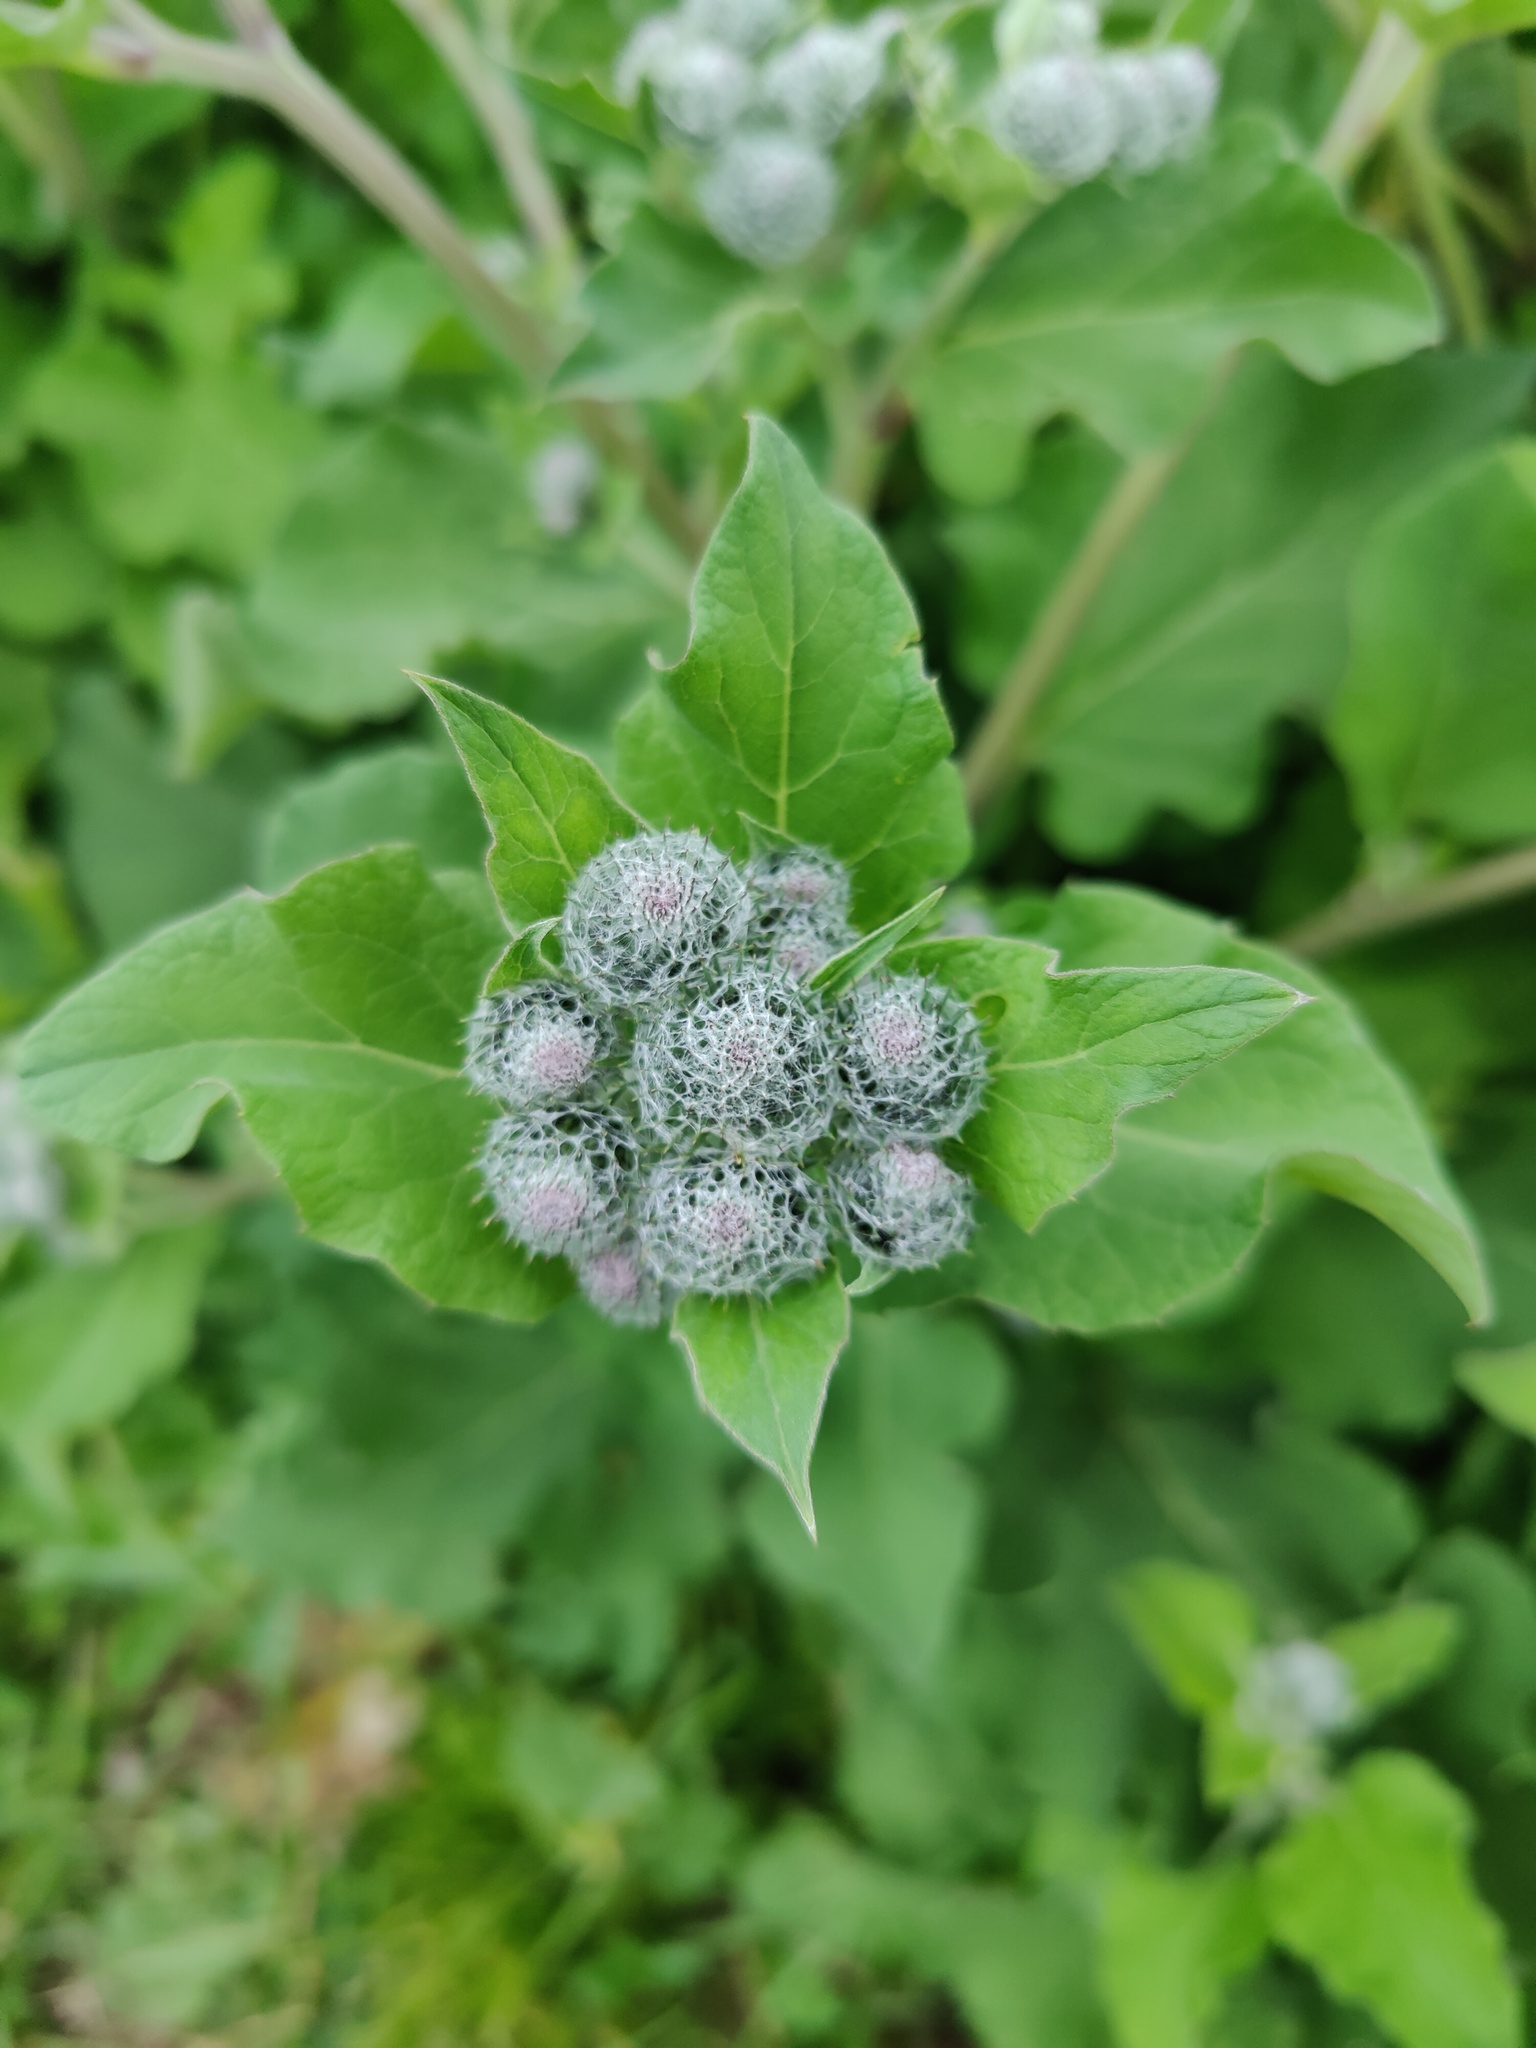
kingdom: Plantae
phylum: Tracheophyta
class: Magnoliopsida
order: Asterales
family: Asteraceae
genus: Arctium
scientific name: Arctium tomentosum
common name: Woolly burdock
